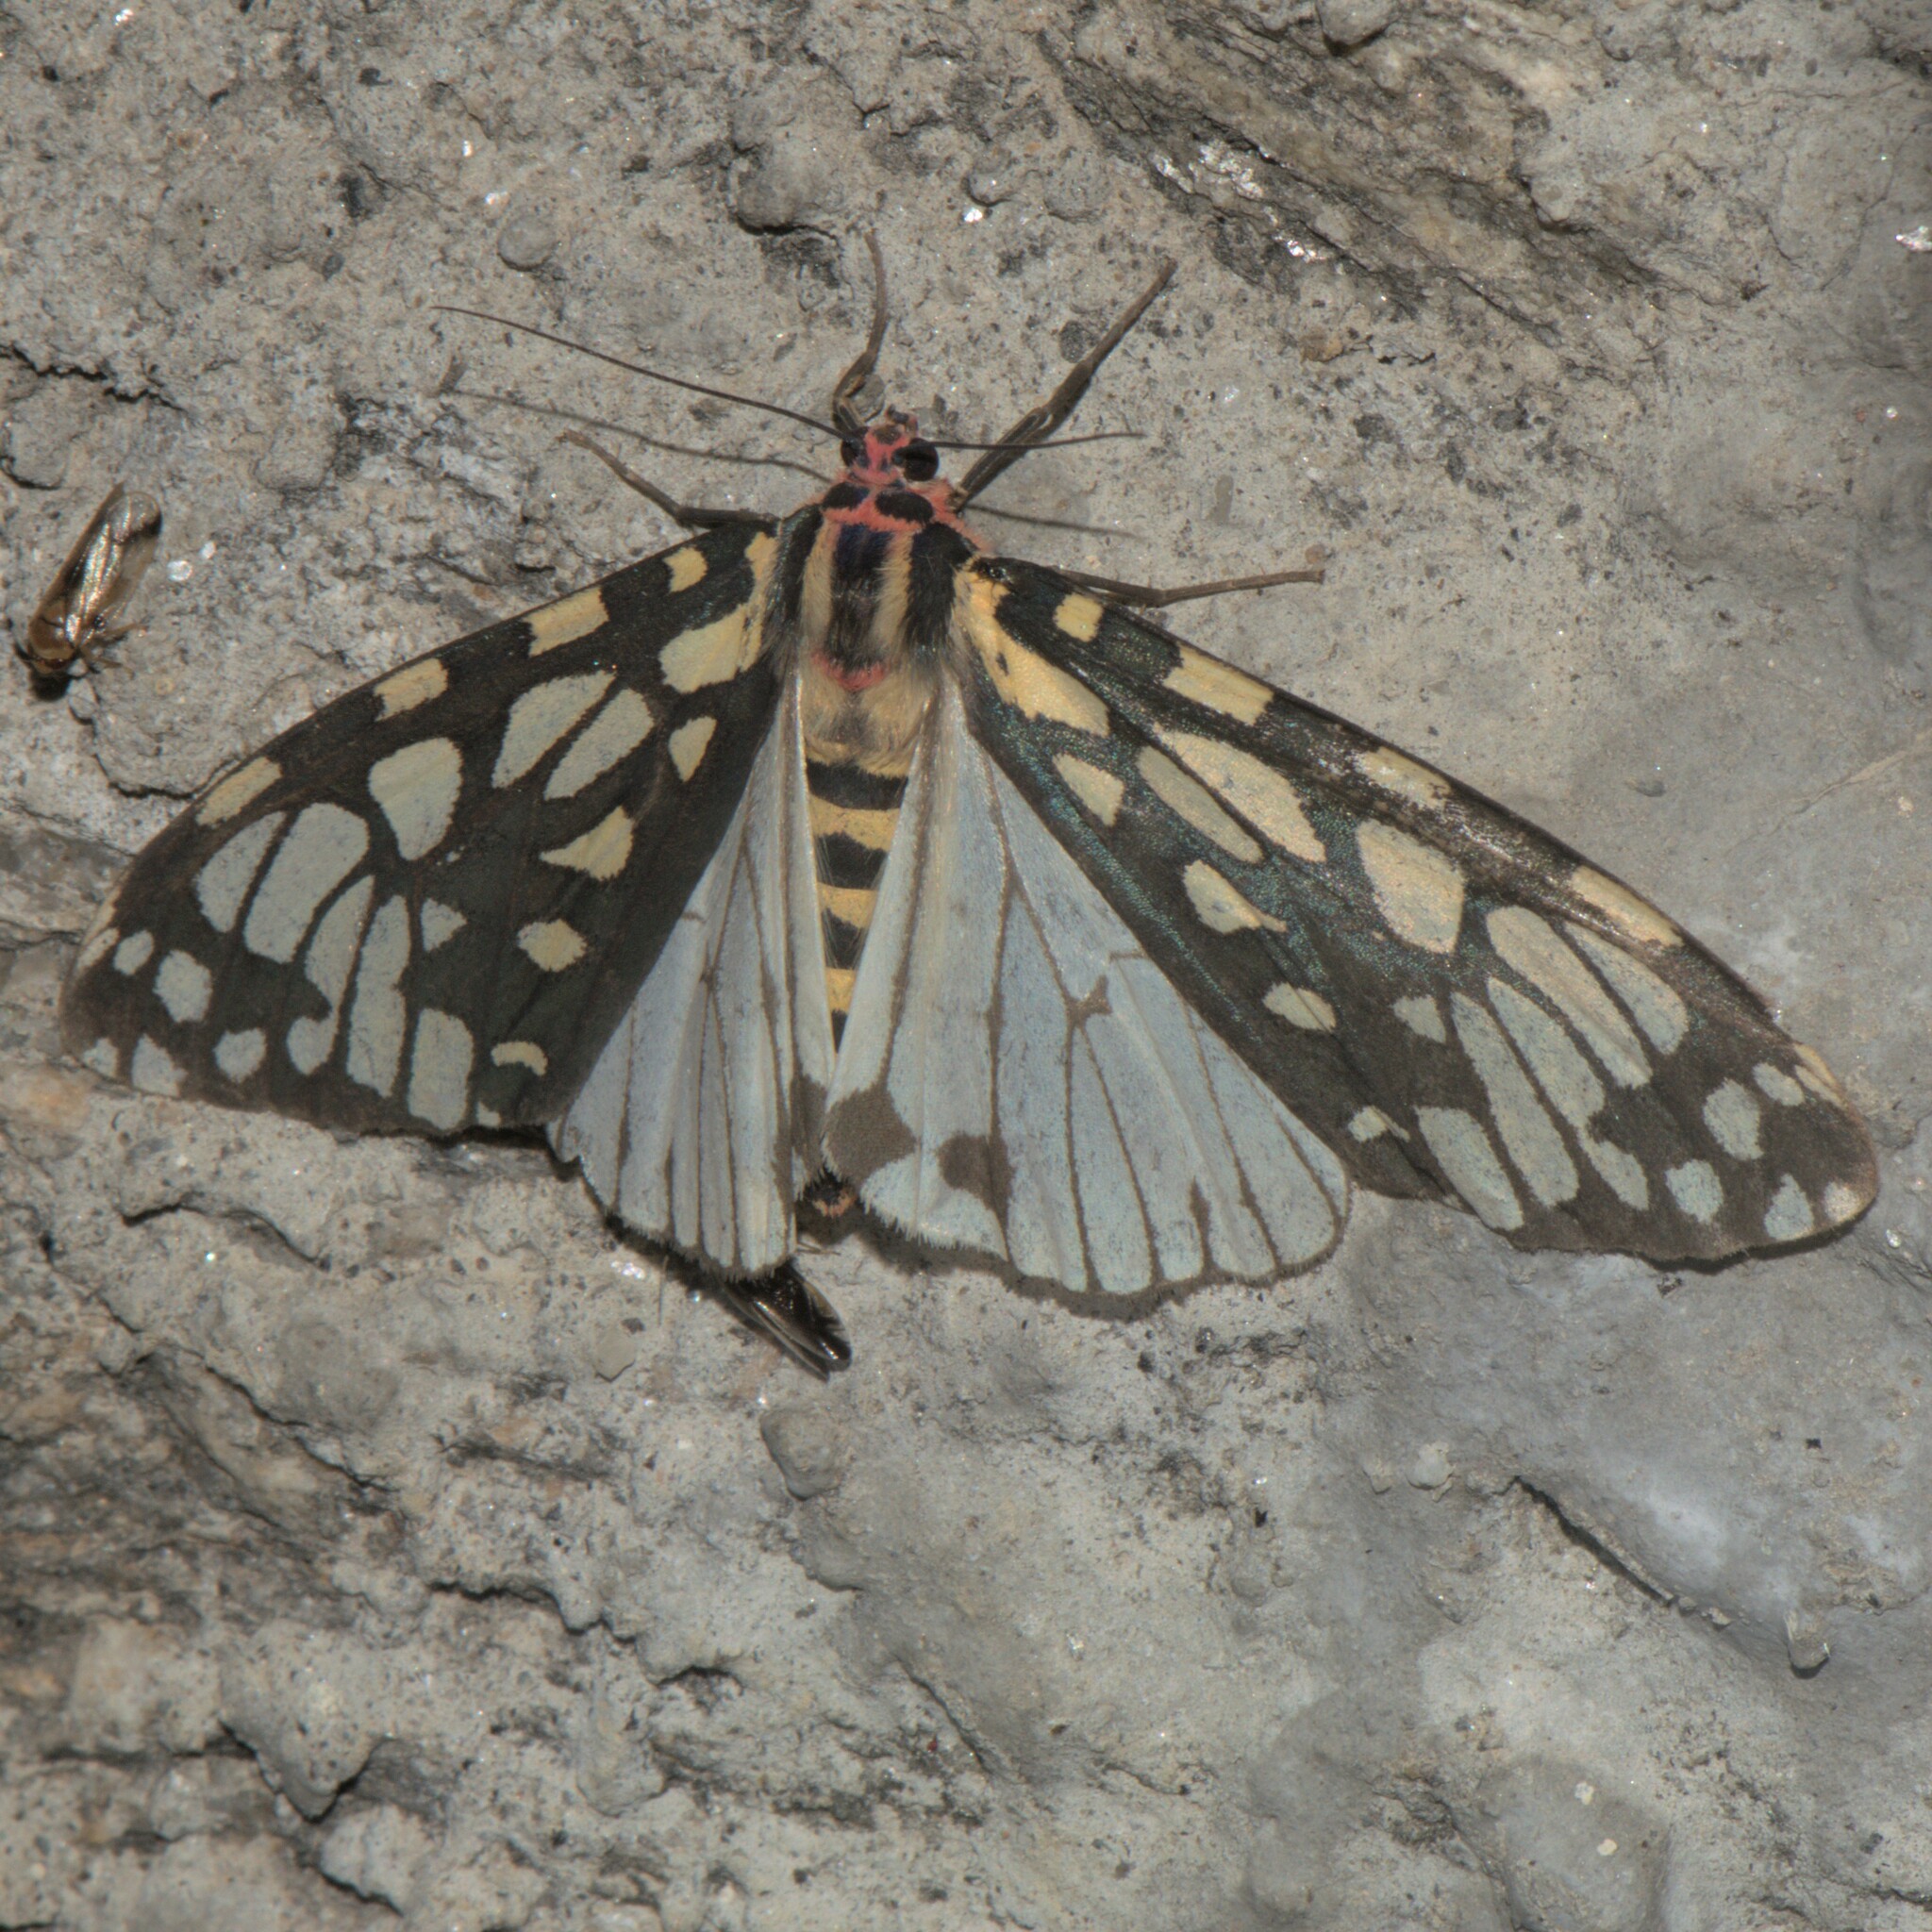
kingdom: Animalia
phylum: Arthropoda
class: Insecta
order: Lepidoptera
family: Erebidae
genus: Callindra
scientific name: Callindra equitalis
